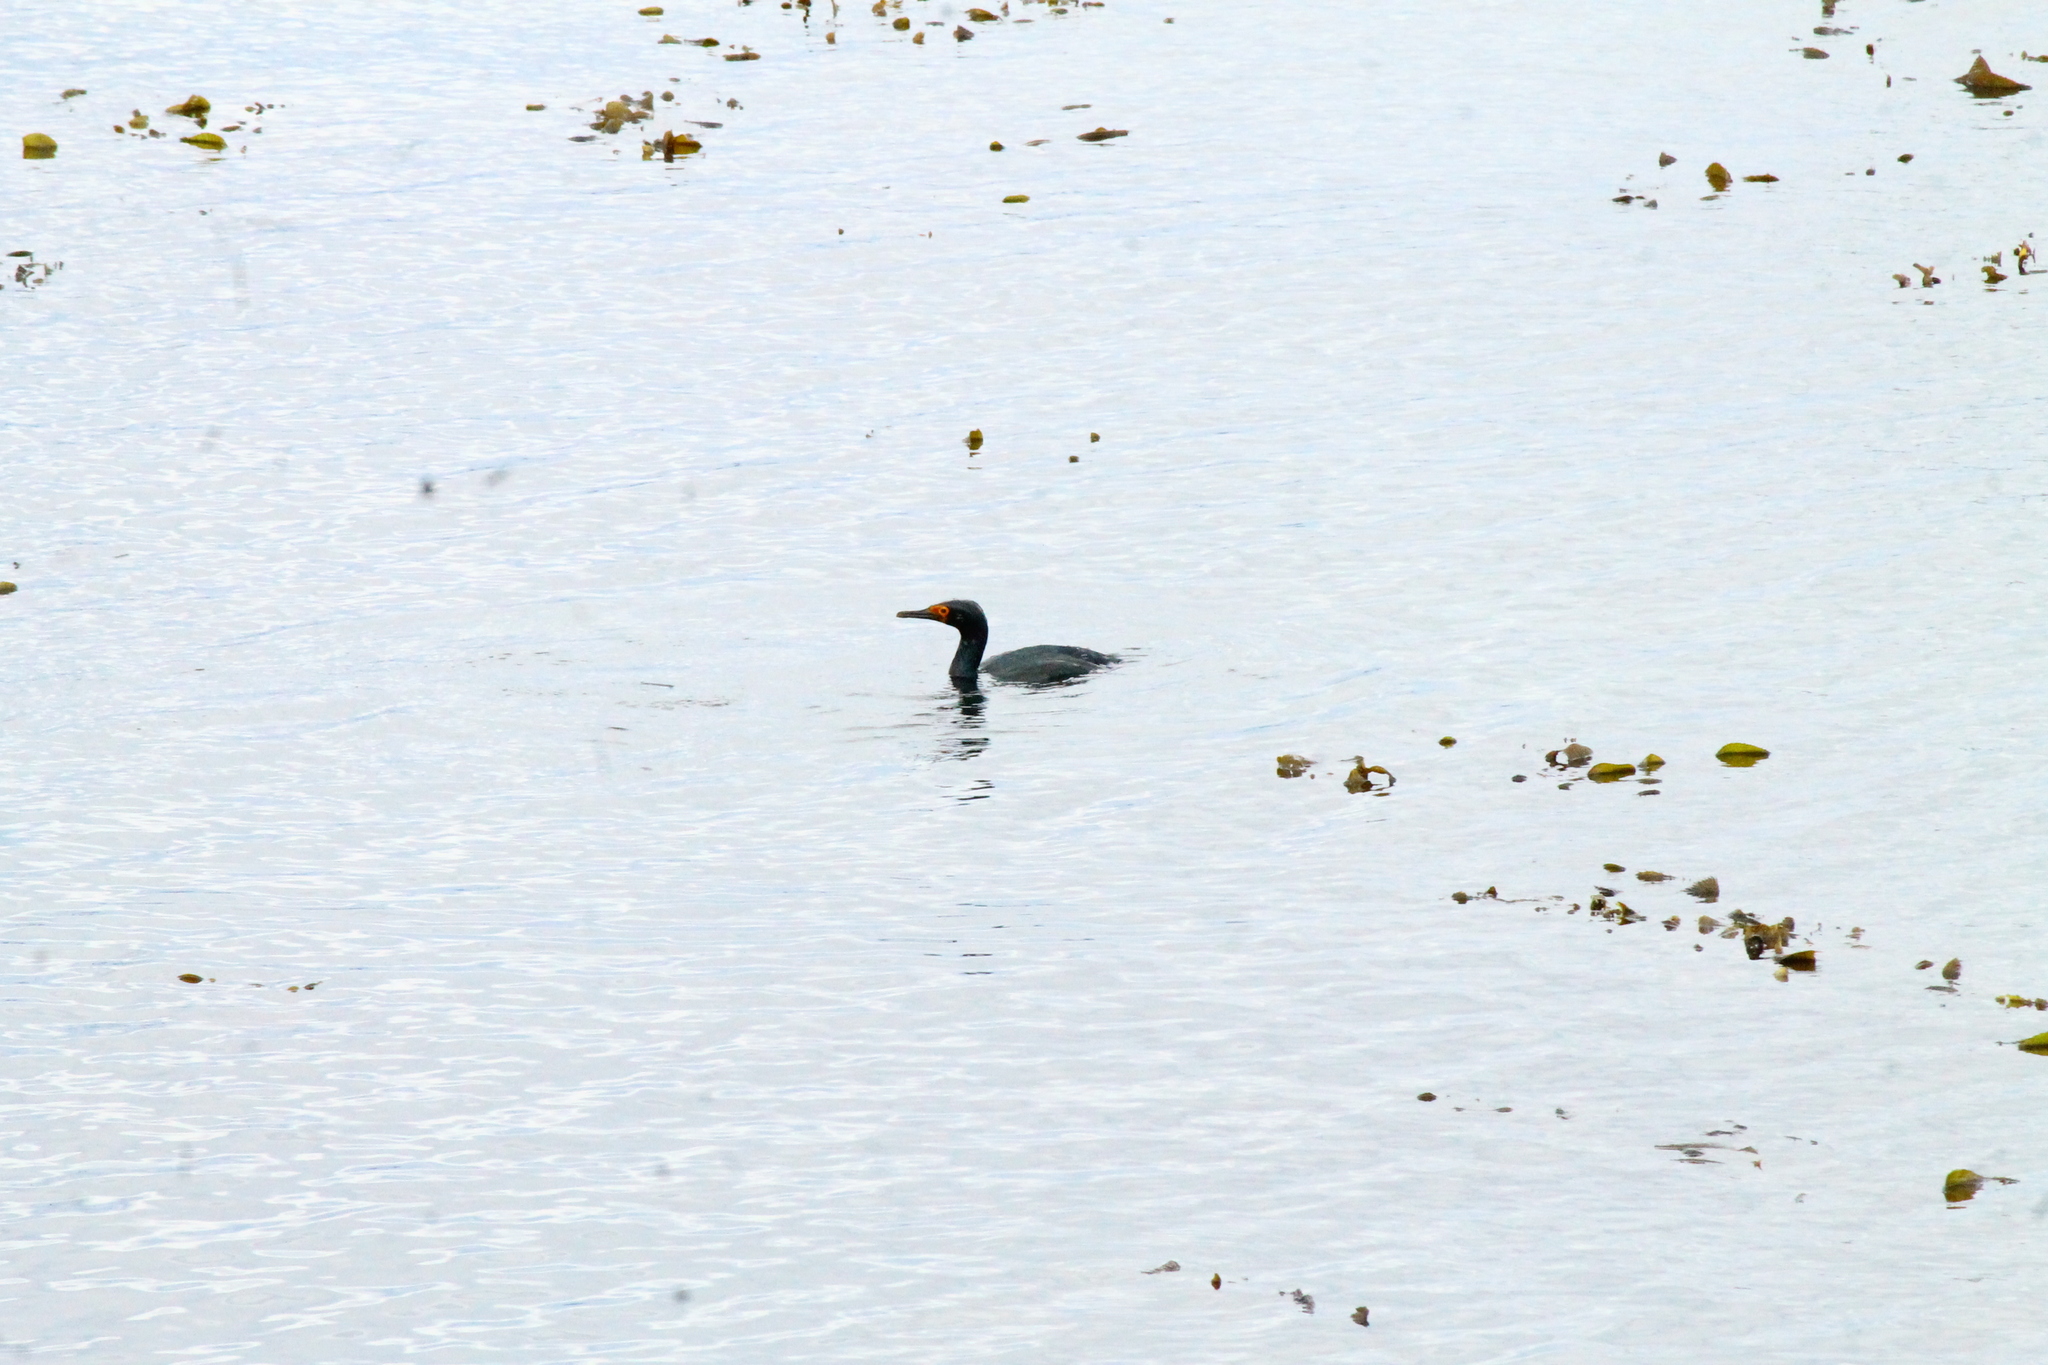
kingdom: Animalia
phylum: Chordata
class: Aves
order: Suliformes
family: Phalacrocoracidae
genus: Phalacrocorax
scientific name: Phalacrocorax magellanicus
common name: Rock shag
